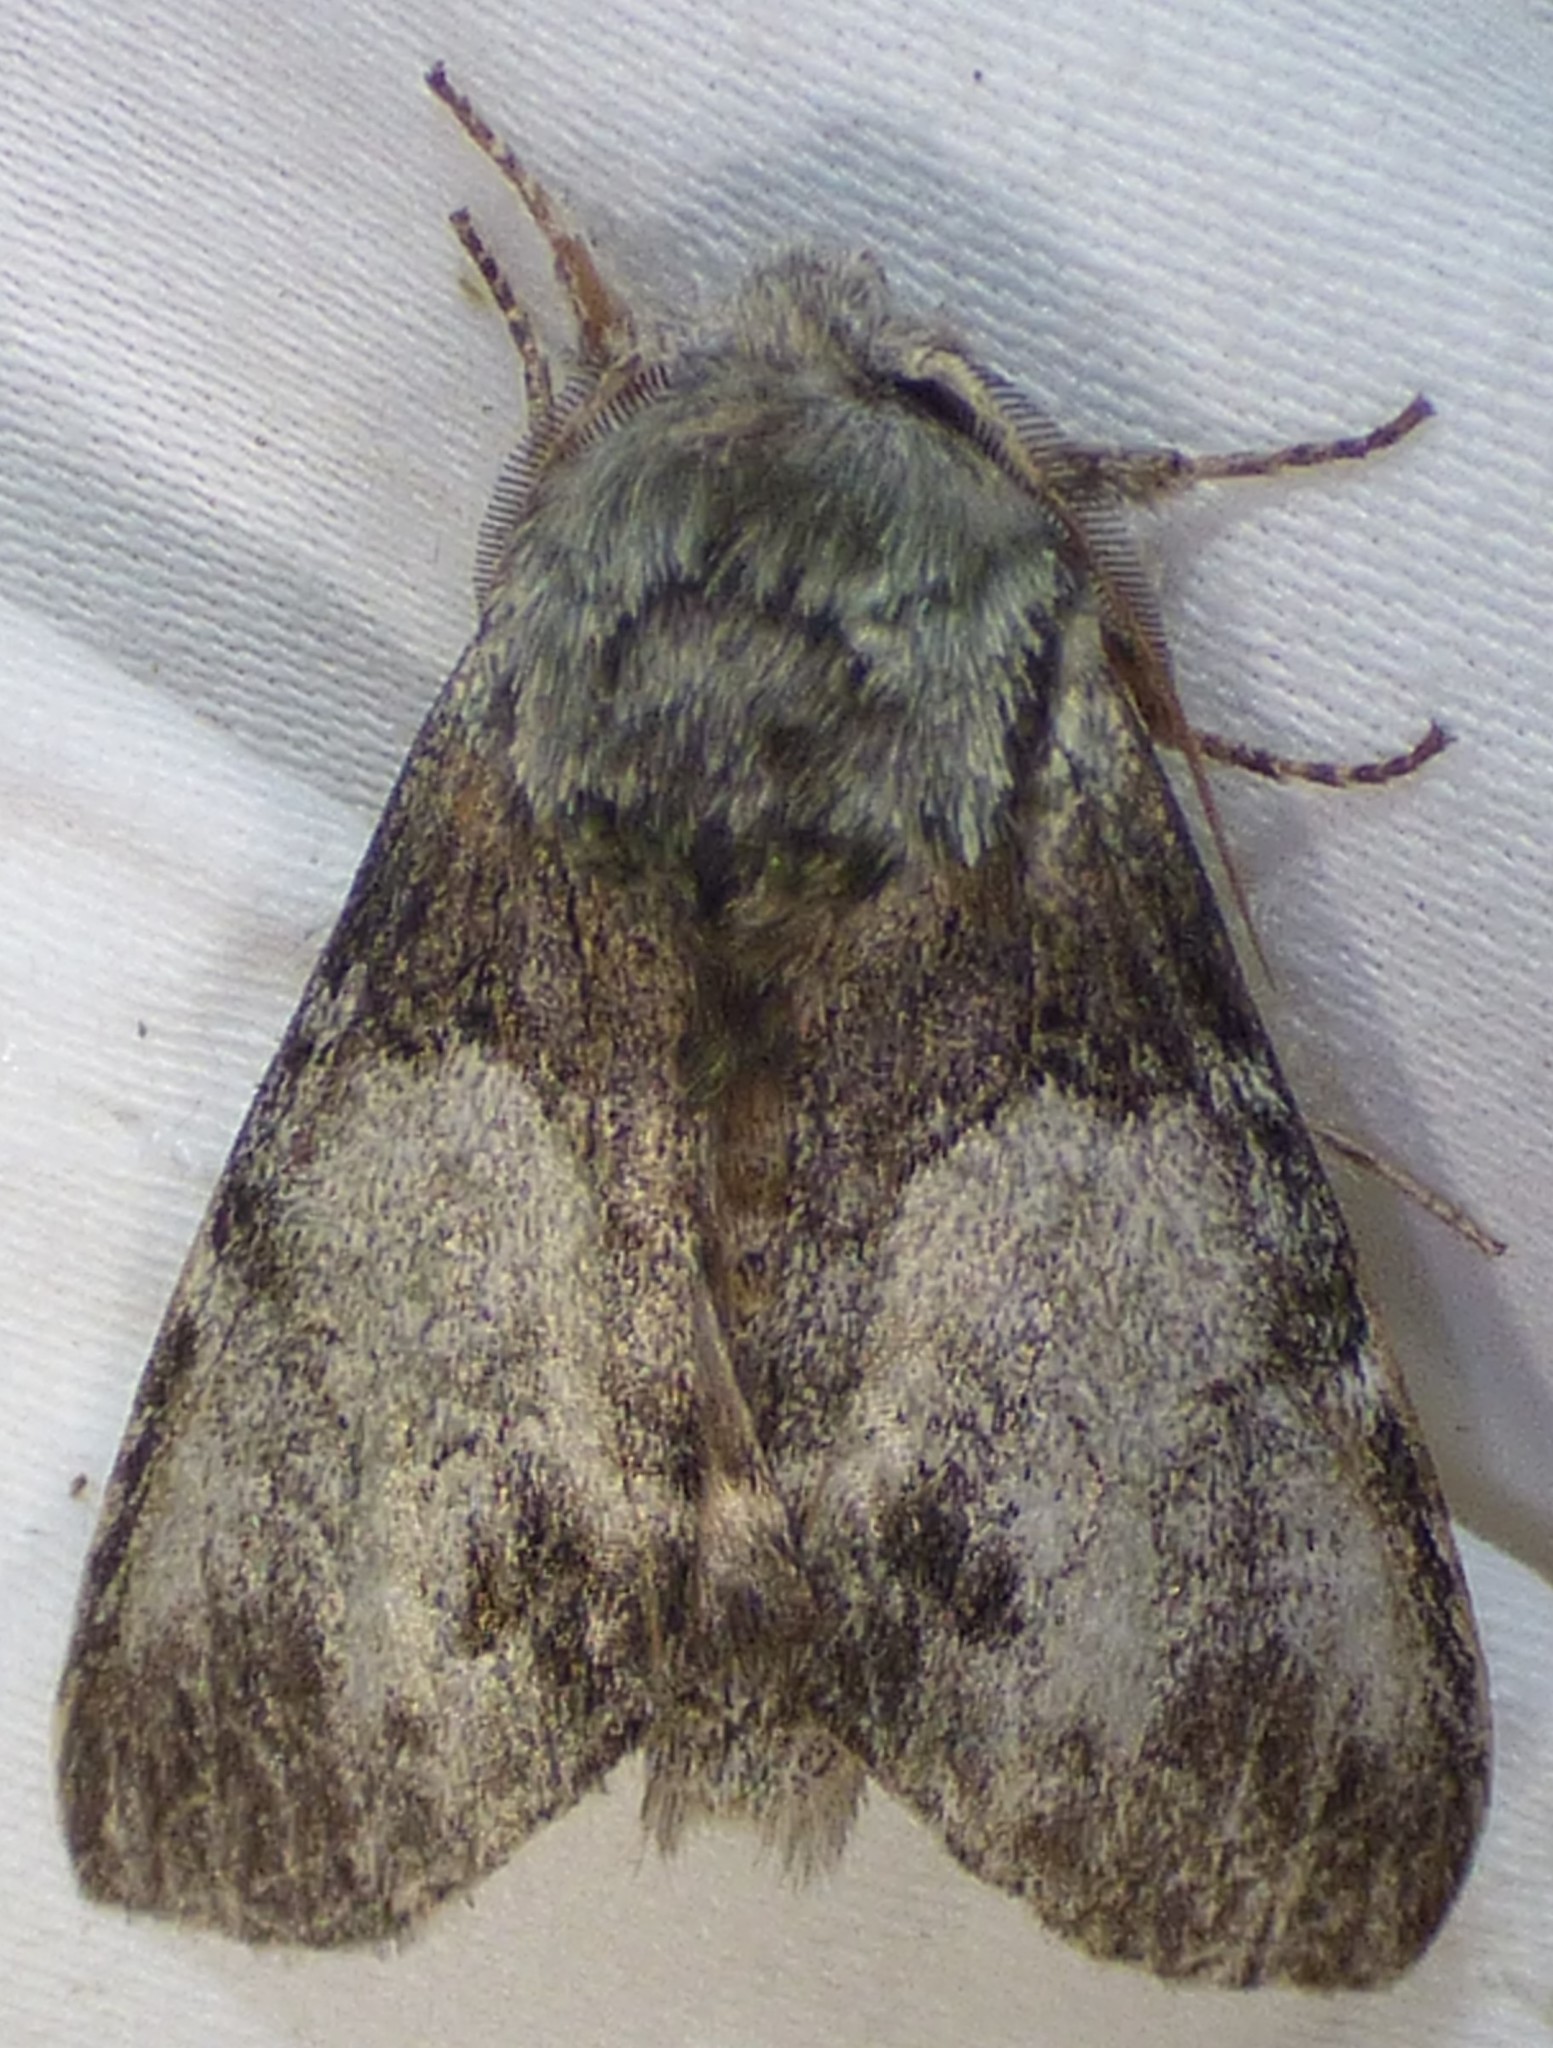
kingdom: Animalia
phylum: Arthropoda
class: Insecta
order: Lepidoptera
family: Notodontidae
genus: Macrurocampa
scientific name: Macrurocampa marthesia
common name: Mottled prominent
